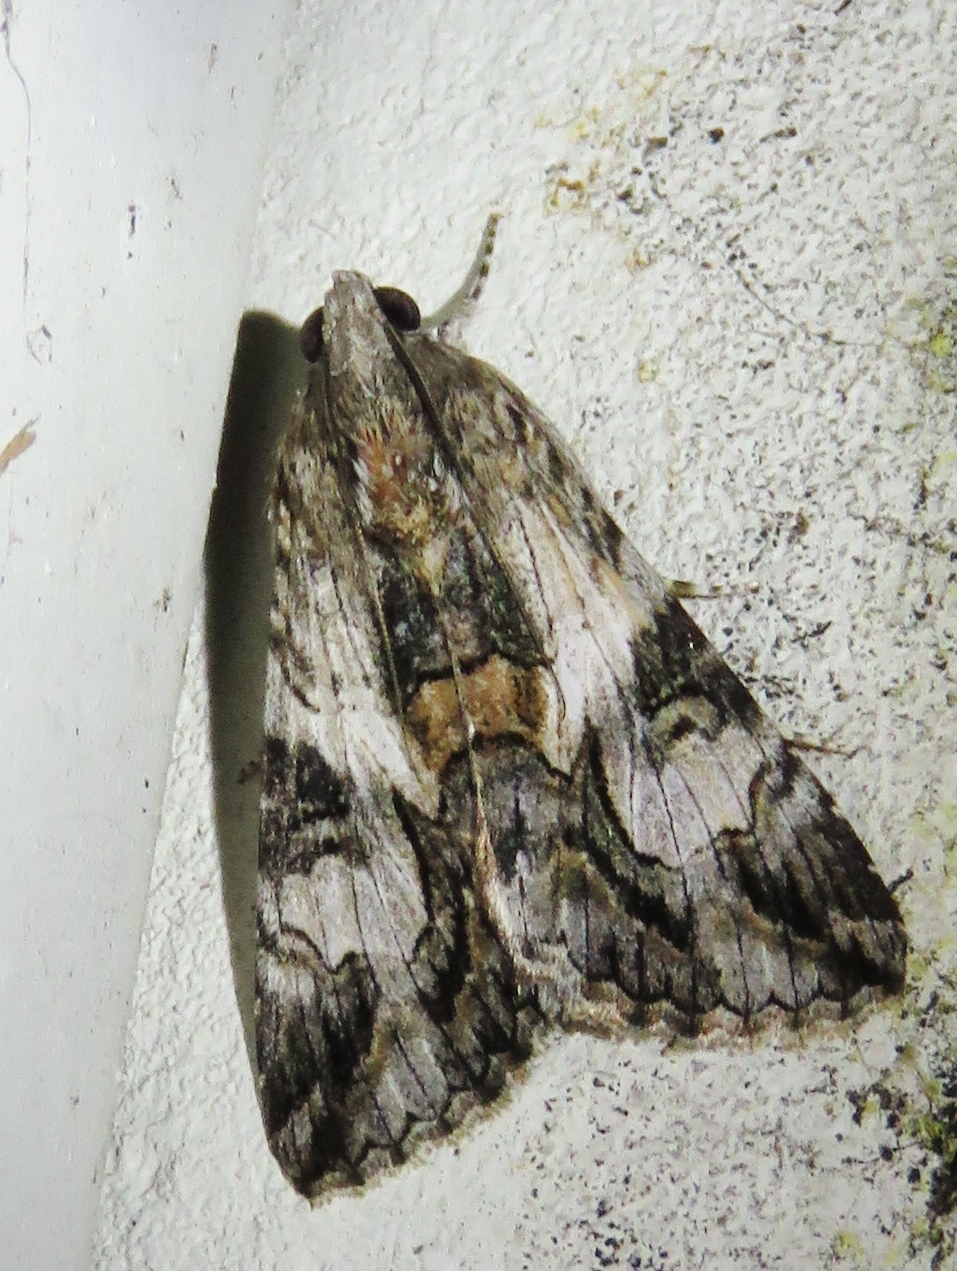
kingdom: Animalia
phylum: Arthropoda
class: Insecta
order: Lepidoptera
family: Erebidae
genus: Melipotis
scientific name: Melipotis jucunda
